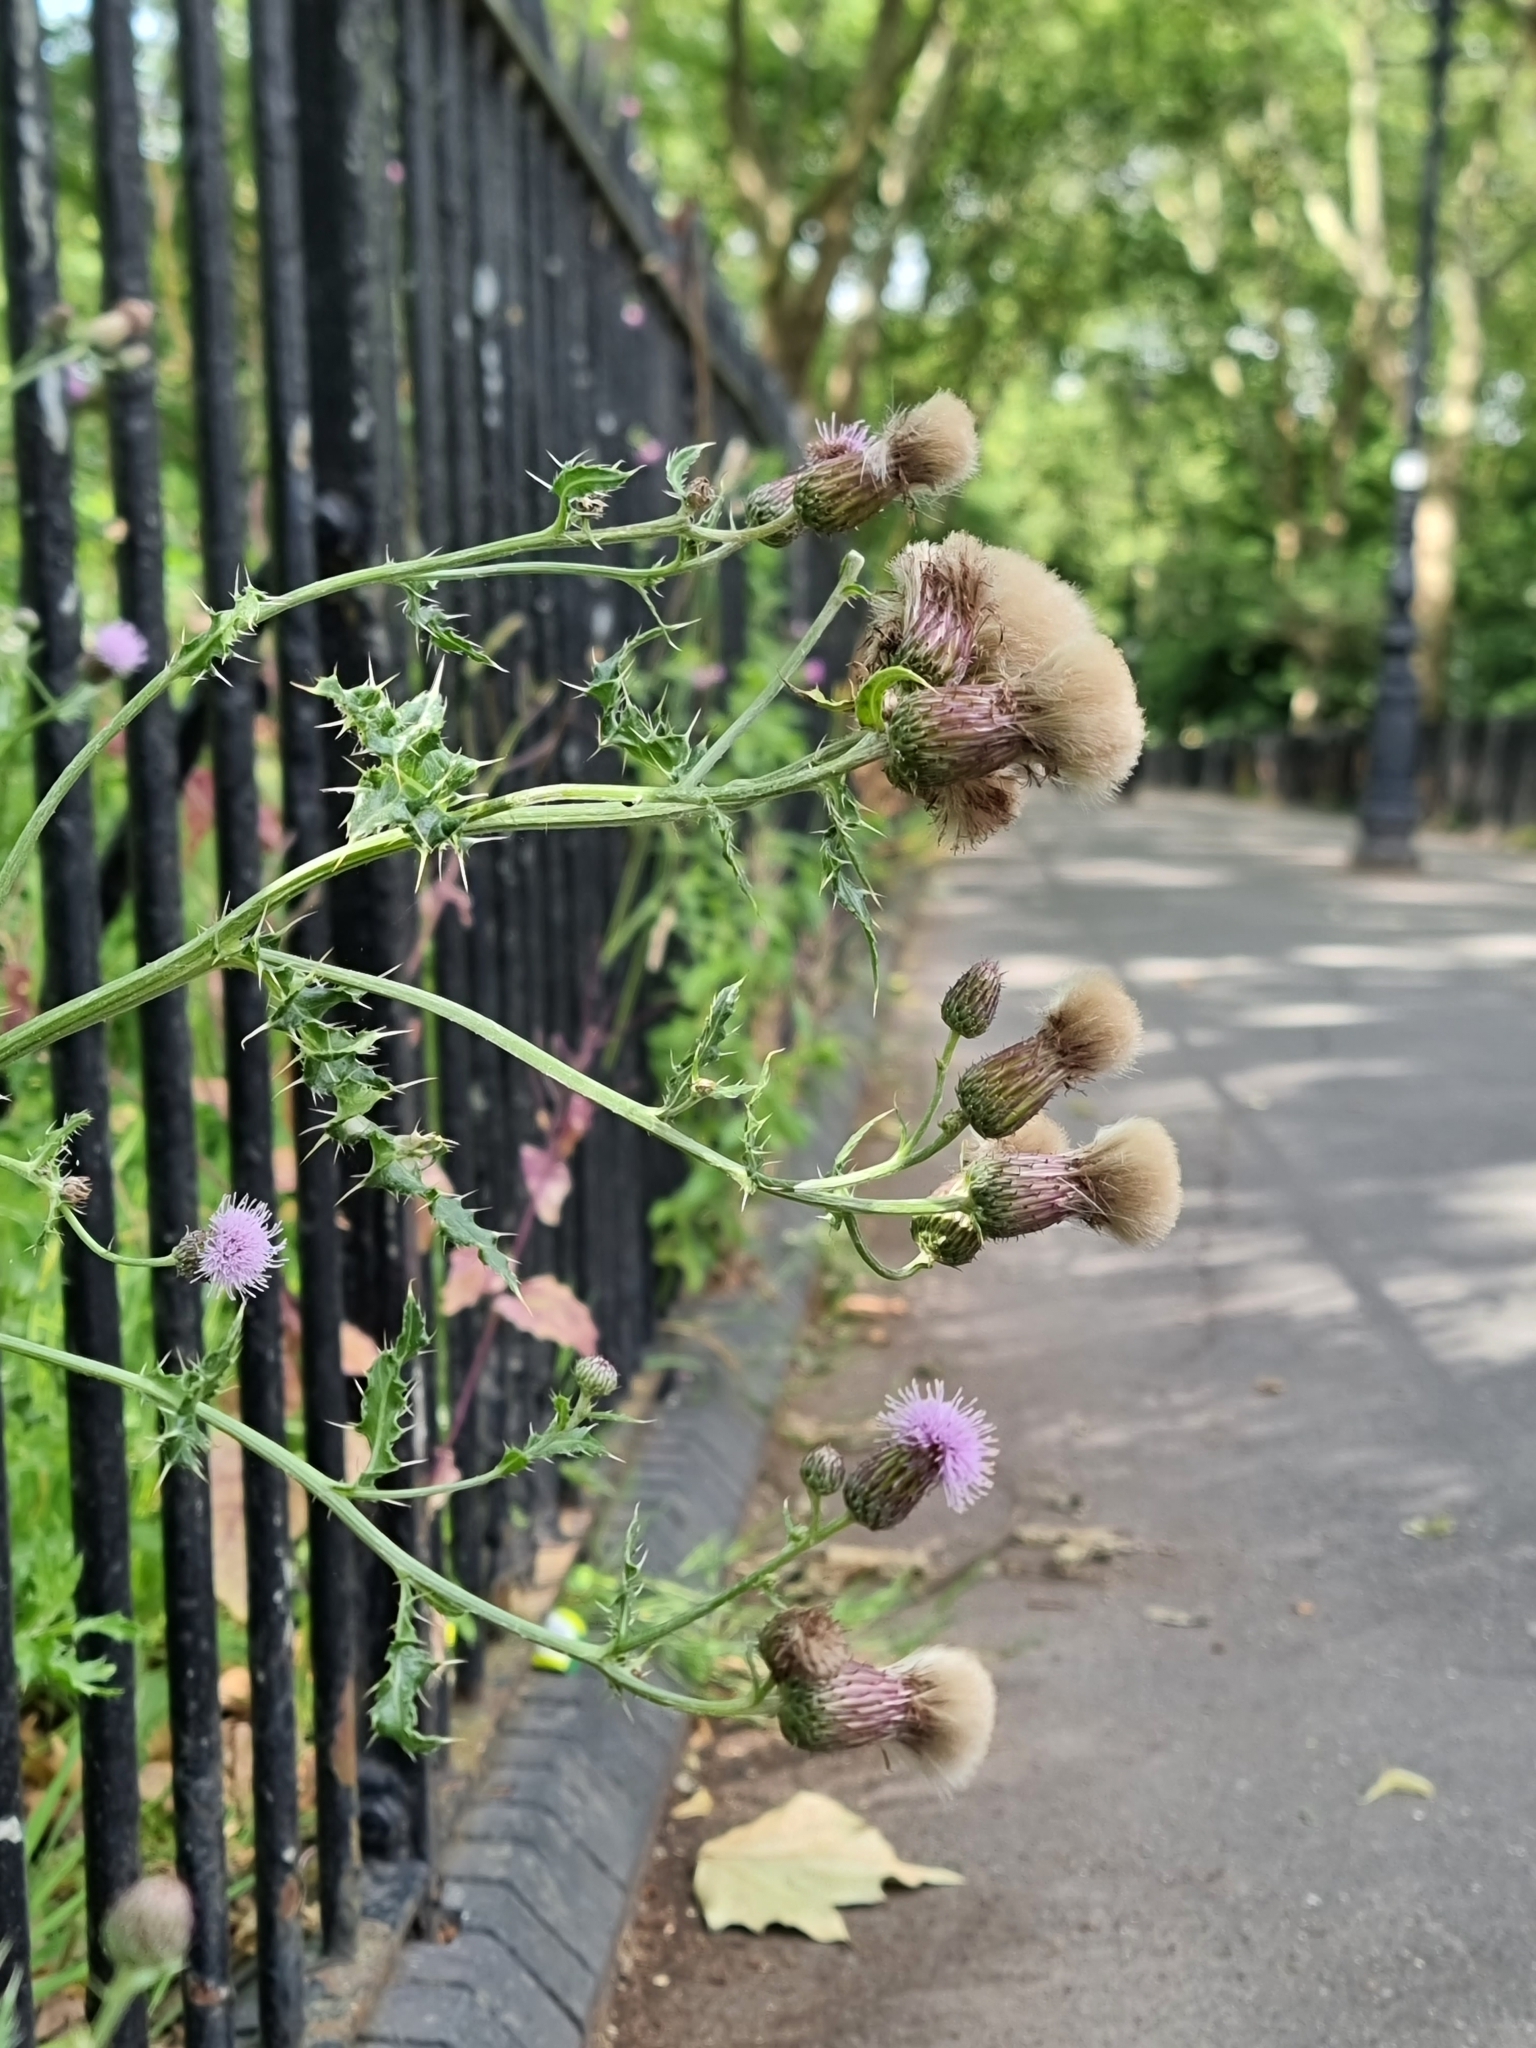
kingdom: Plantae
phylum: Tracheophyta
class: Magnoliopsida
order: Asterales
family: Asteraceae
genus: Cirsium
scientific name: Cirsium arvense
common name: Creeping thistle
